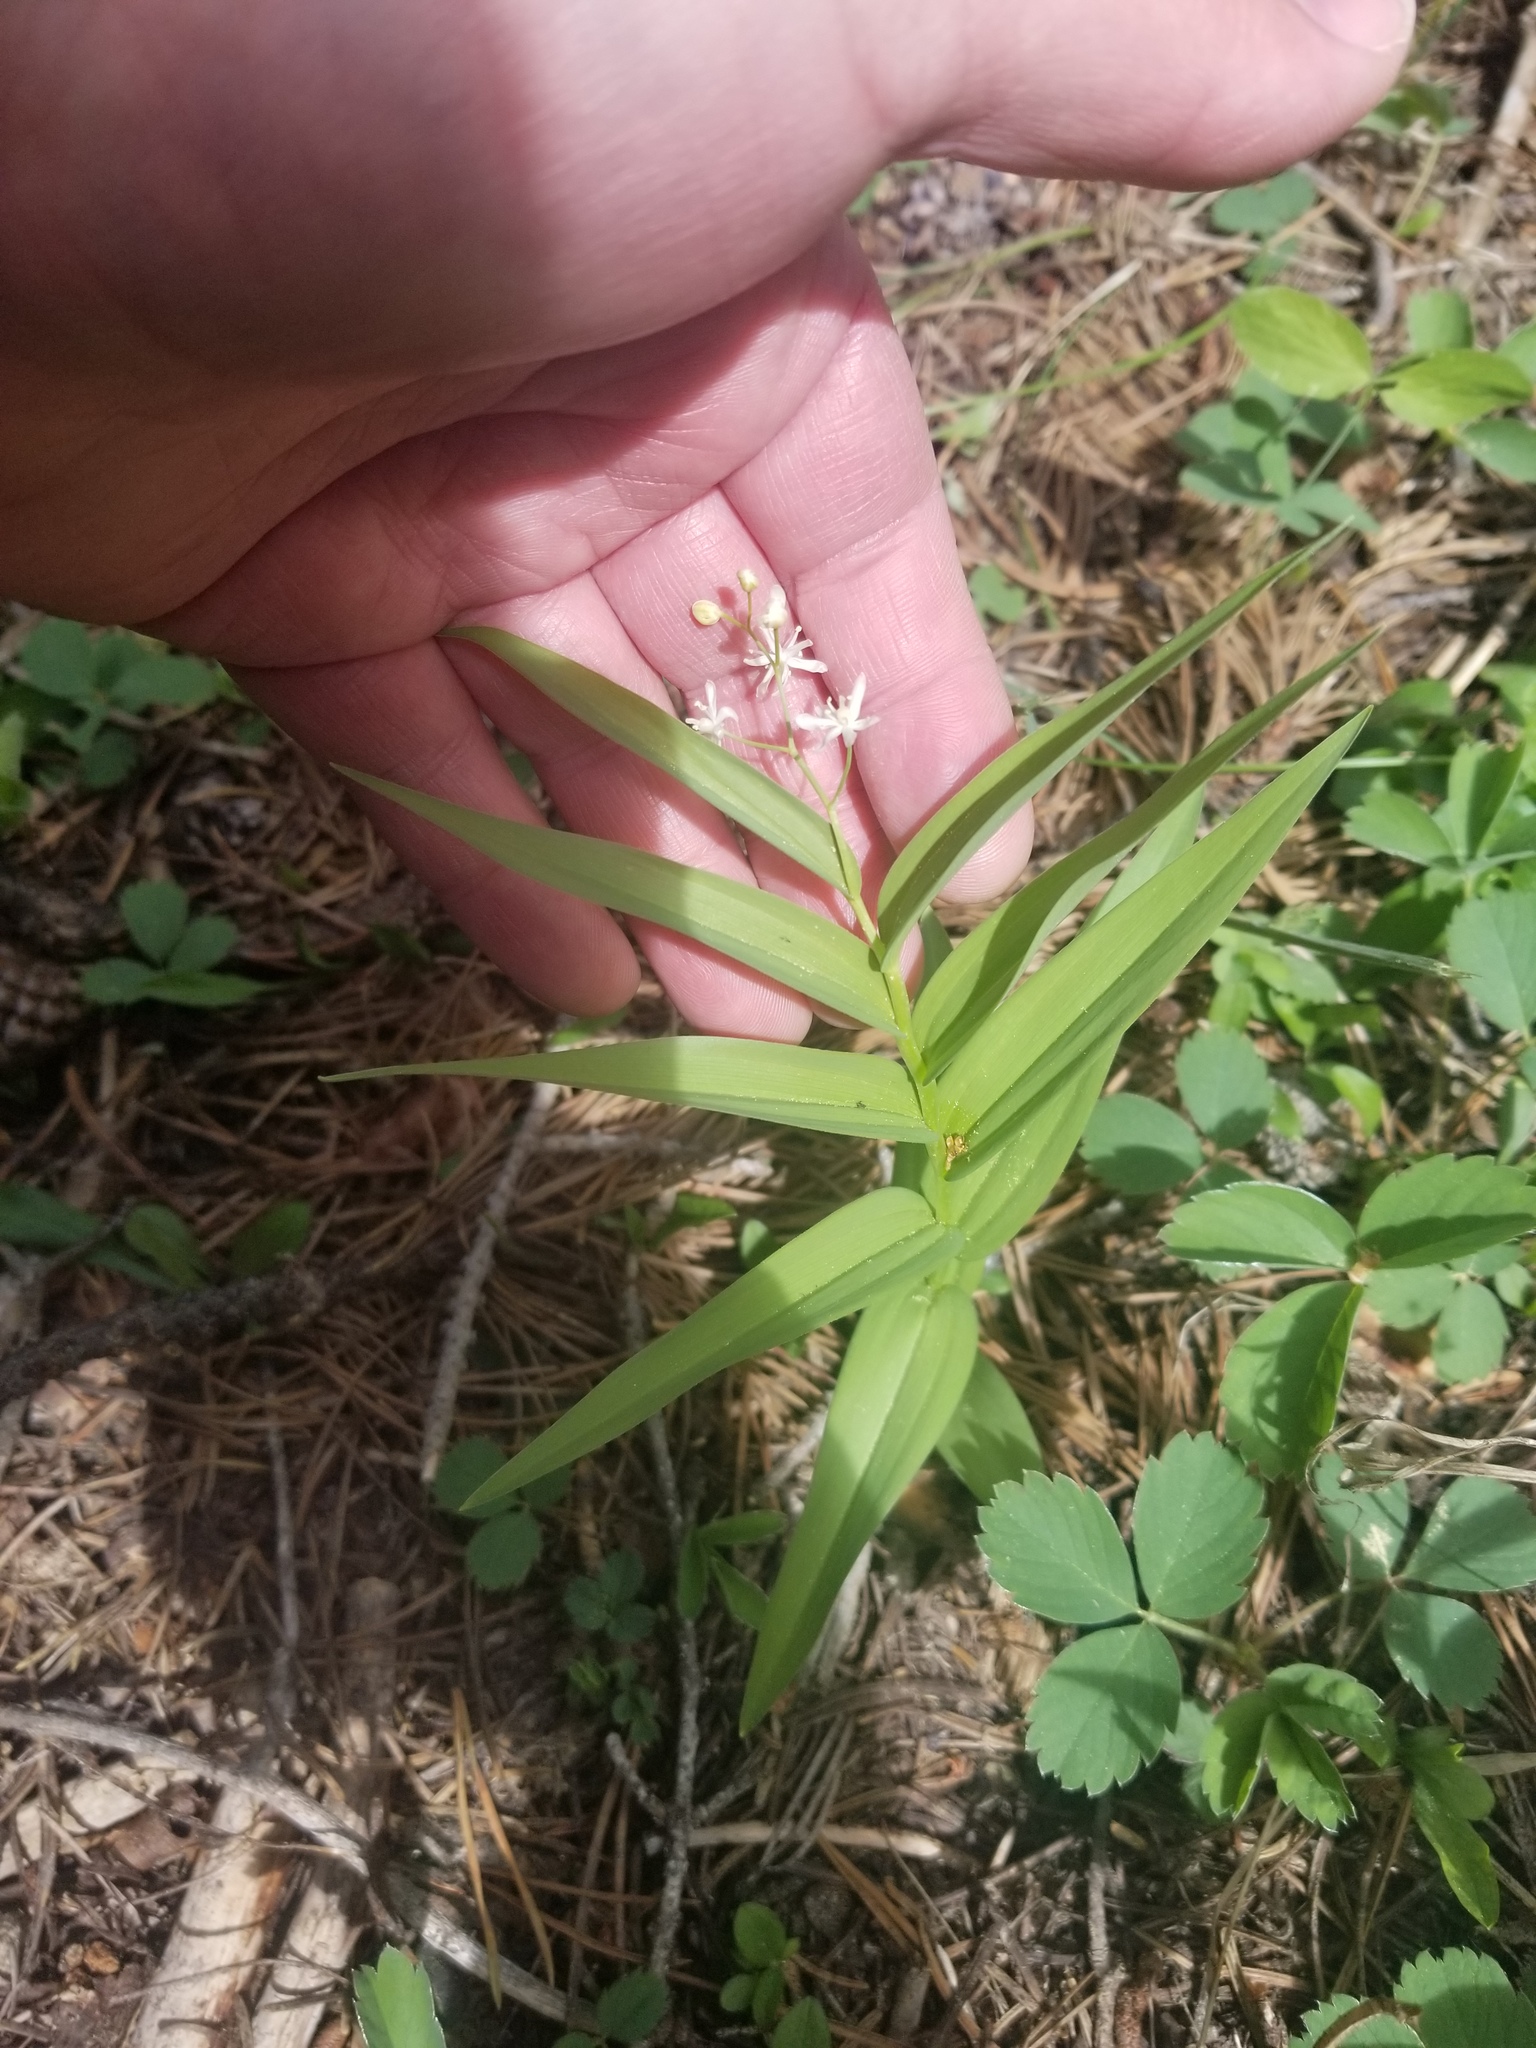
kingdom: Plantae
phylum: Tracheophyta
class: Liliopsida
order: Asparagales
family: Asparagaceae
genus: Maianthemum
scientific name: Maianthemum stellatum
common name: Little false solomon's seal
